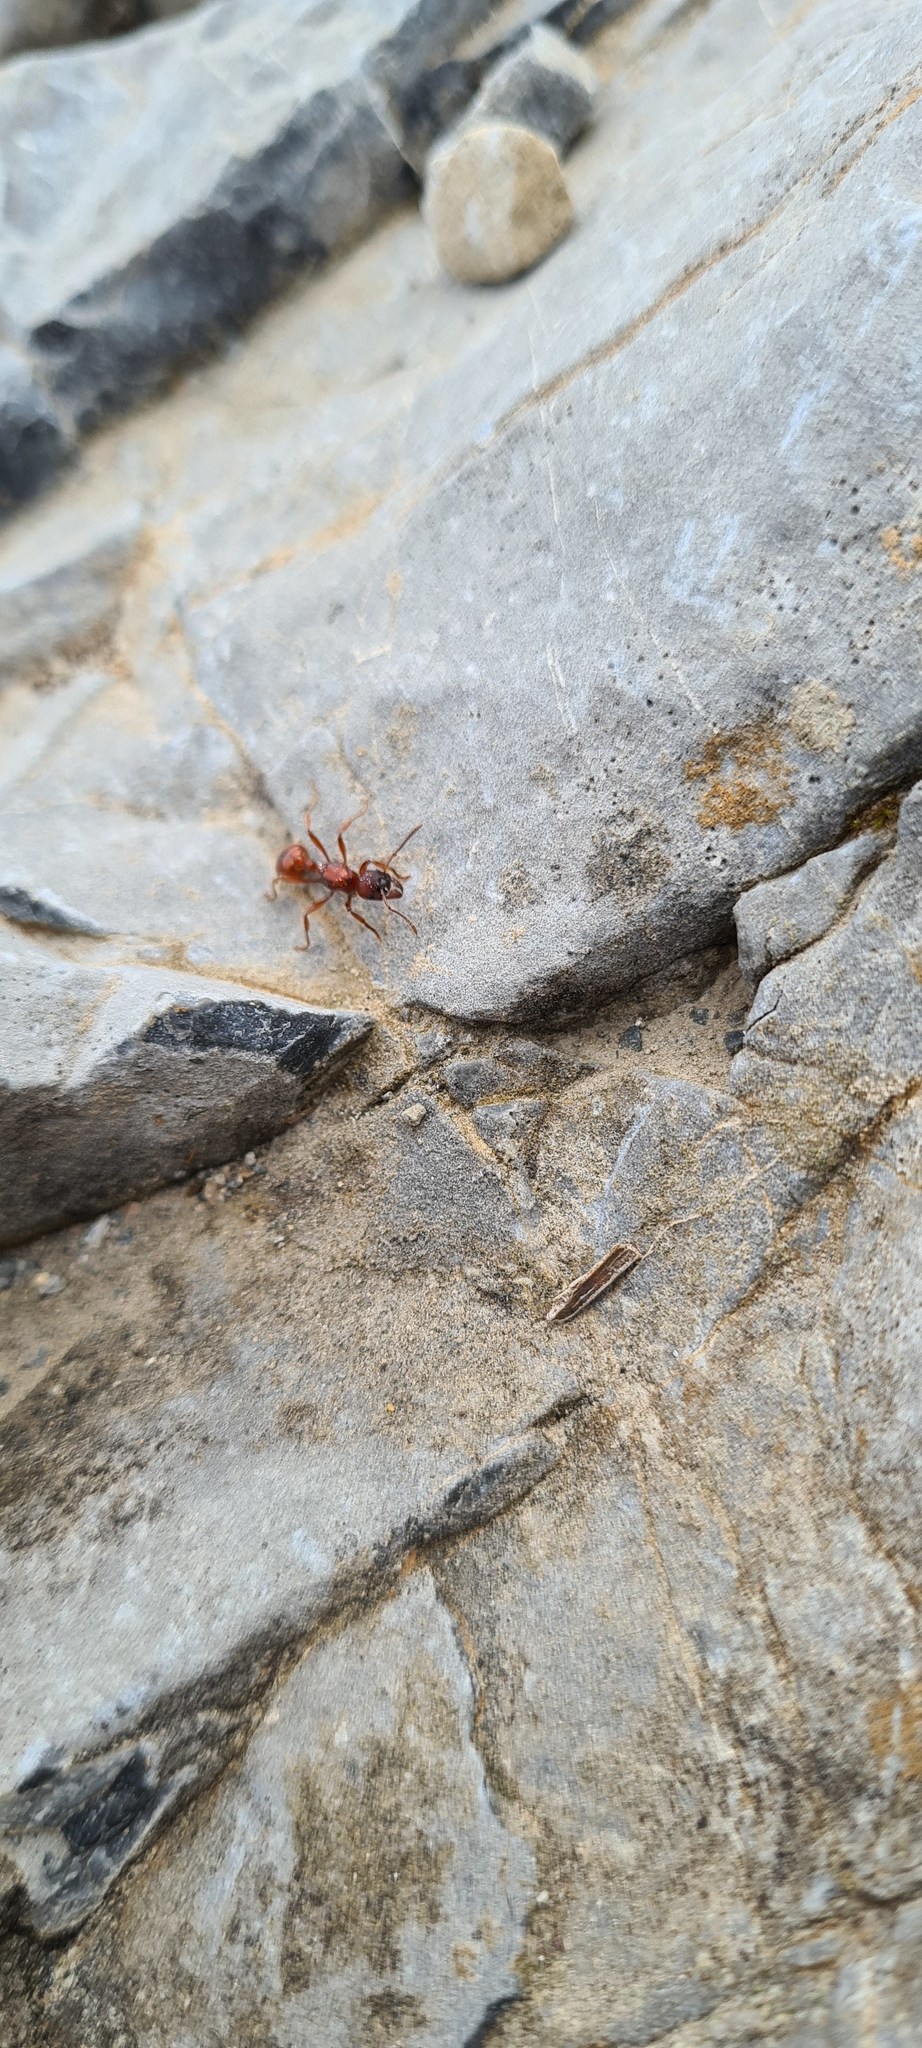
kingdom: Animalia
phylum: Arthropoda
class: Insecta
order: Hymenoptera
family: Formicidae
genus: Manica
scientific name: Manica rubida
